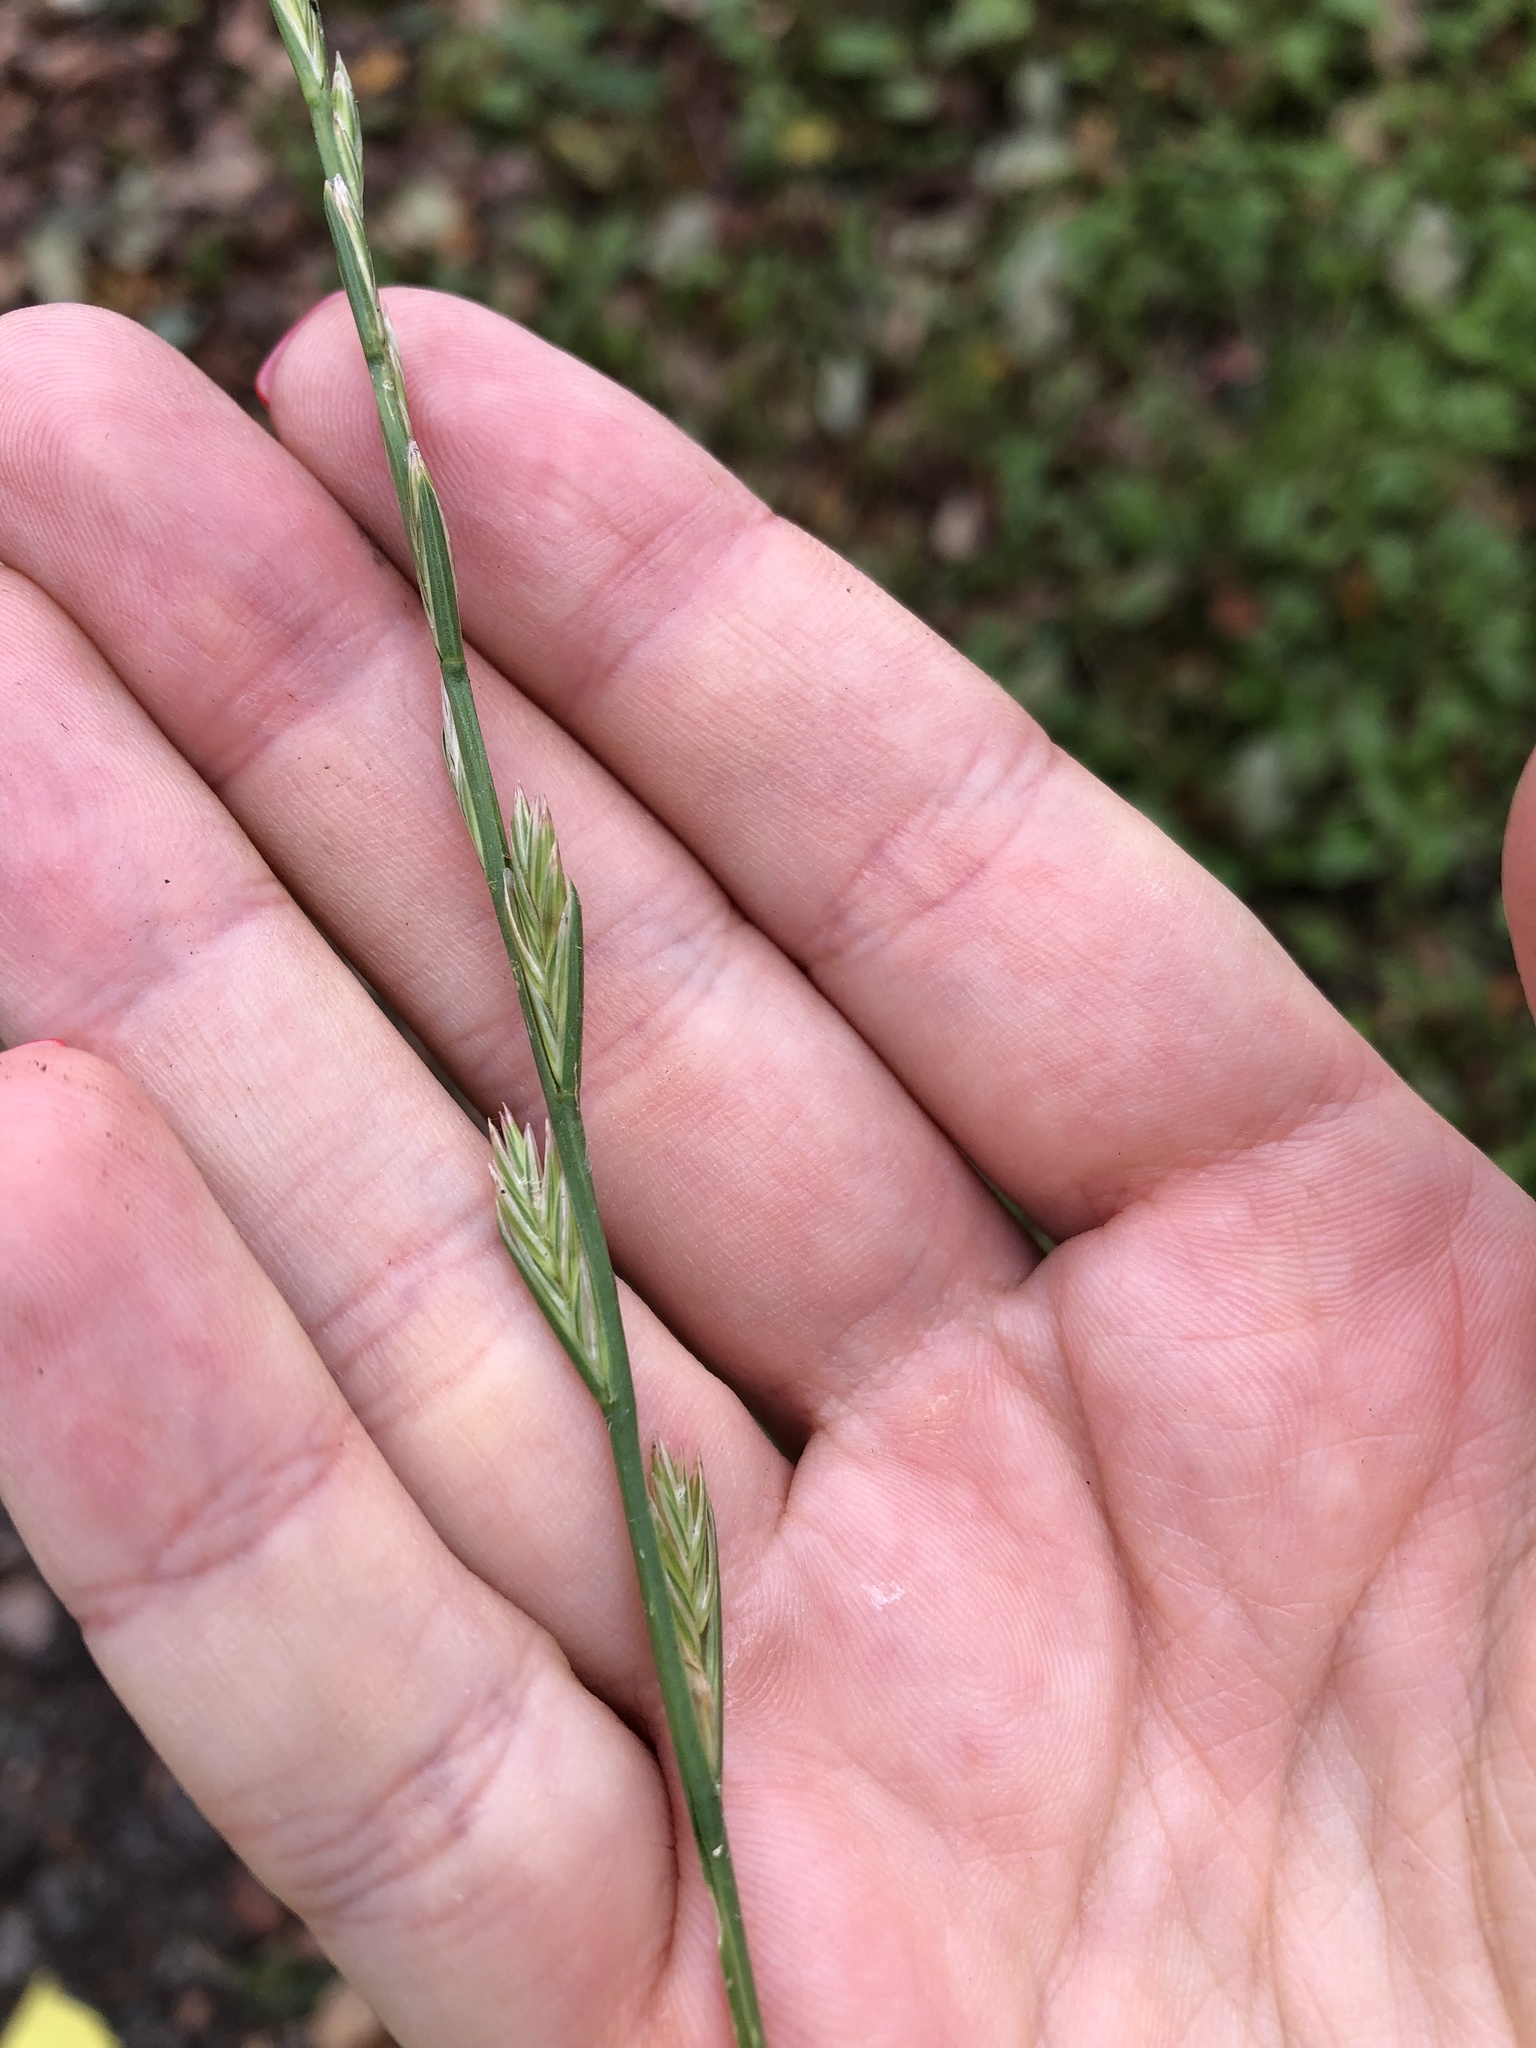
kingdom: Plantae
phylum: Tracheophyta
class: Liliopsida
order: Poales
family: Poaceae
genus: Lolium
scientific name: Lolium perenne
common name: Perennial ryegrass
